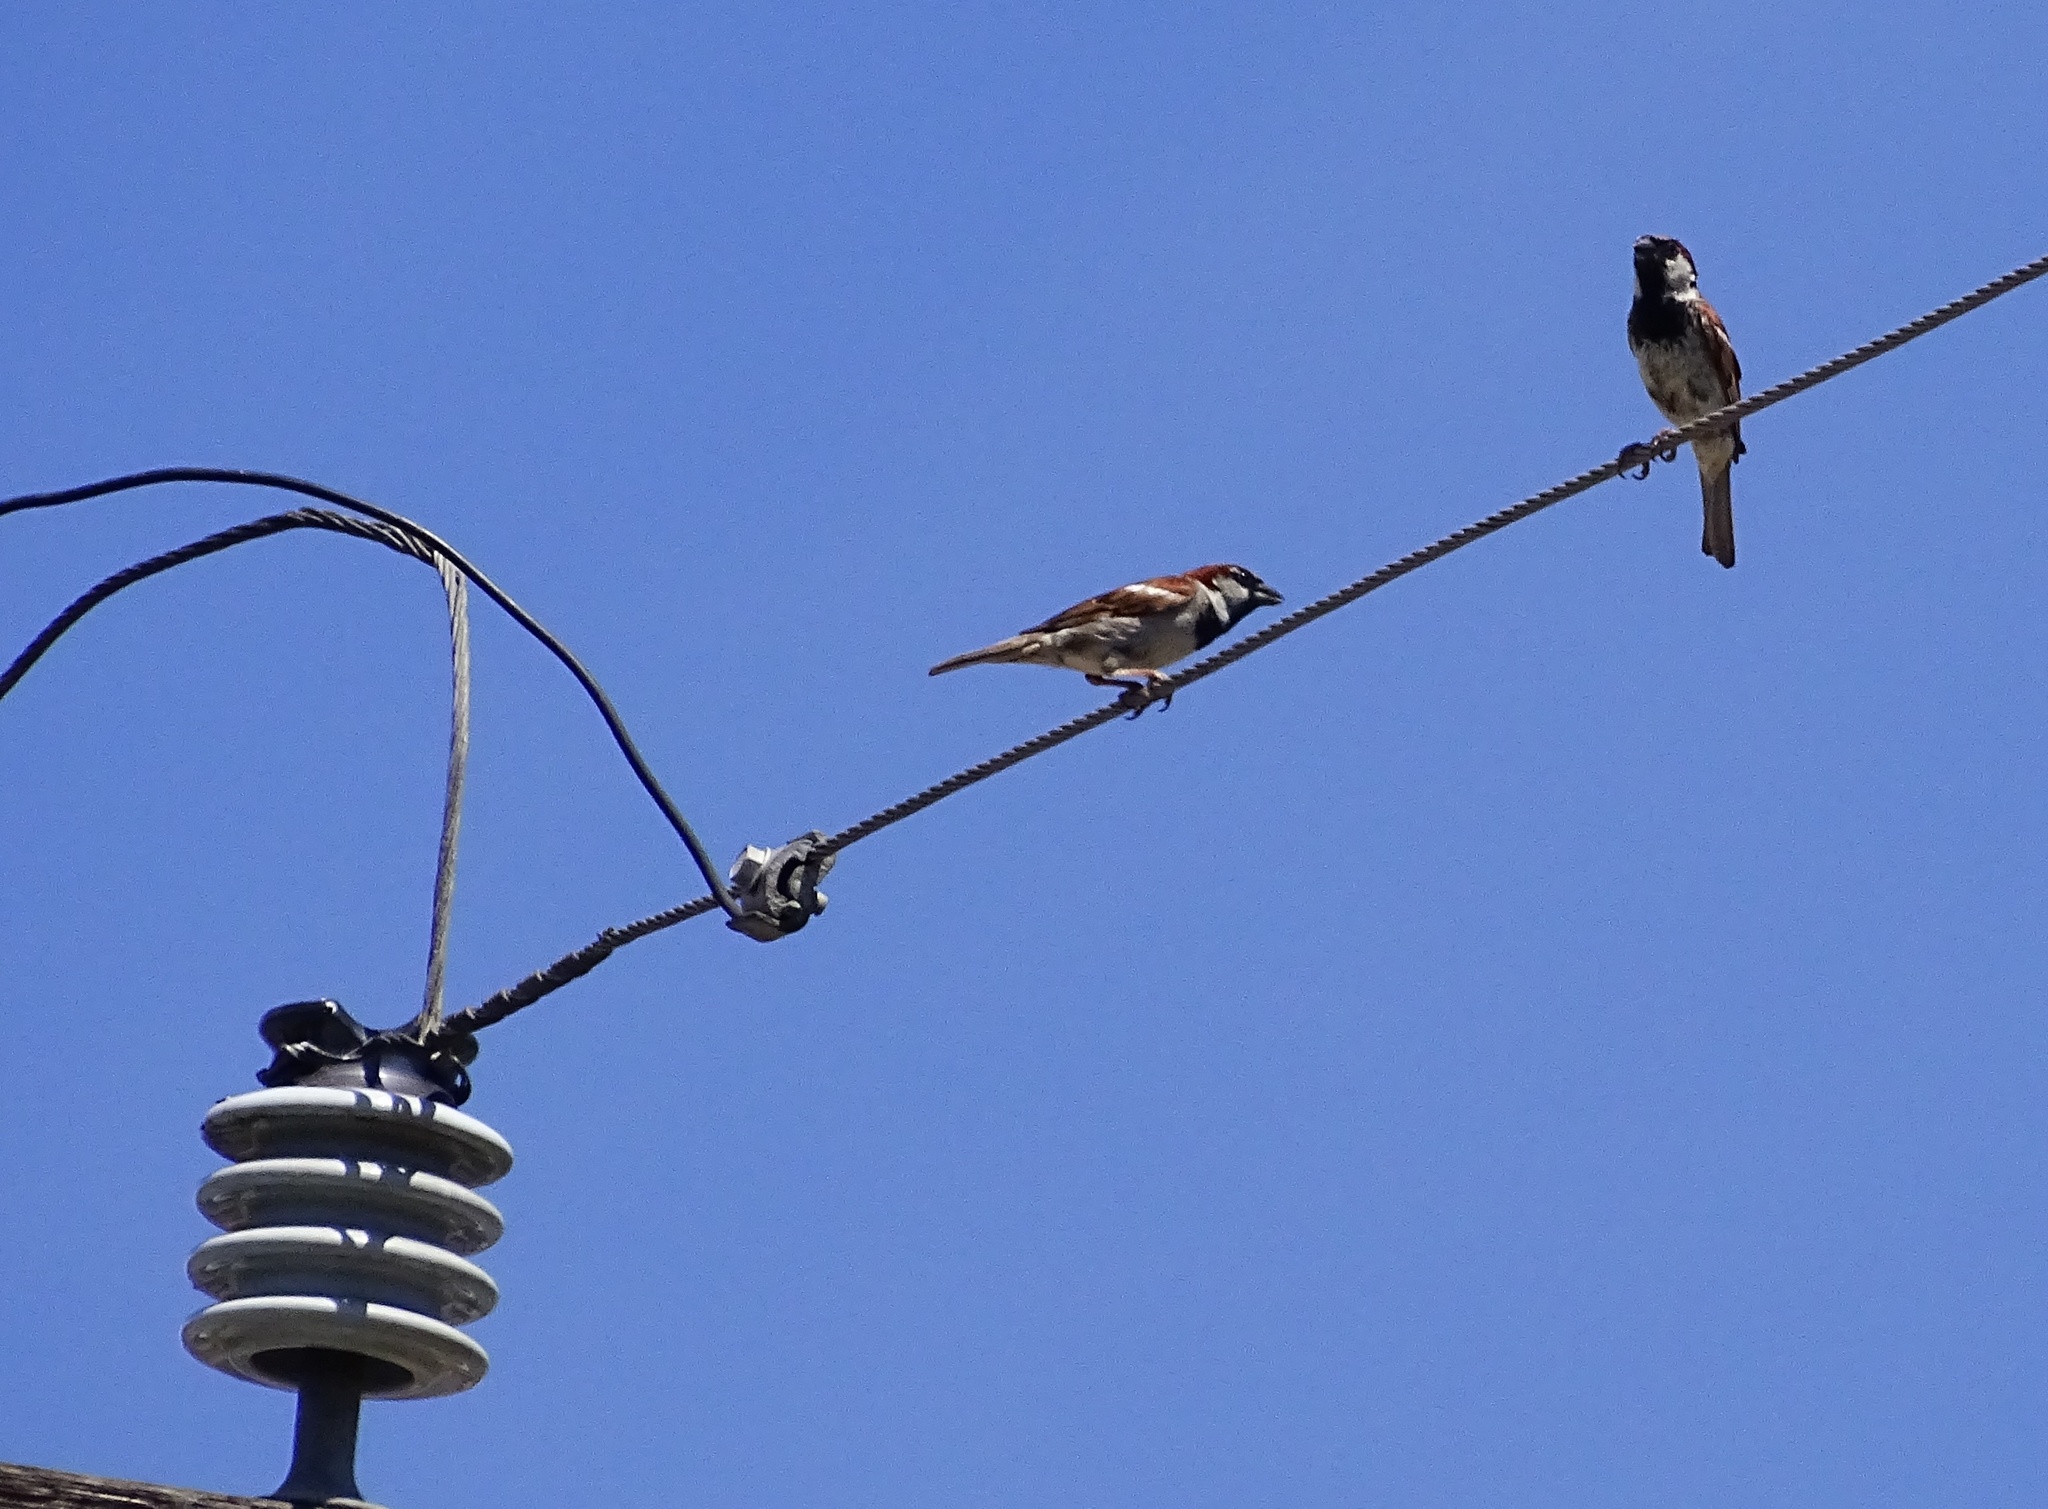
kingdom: Animalia
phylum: Chordata
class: Aves
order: Passeriformes
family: Passeridae
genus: Passer
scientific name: Passer domesticus
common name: House sparrow
